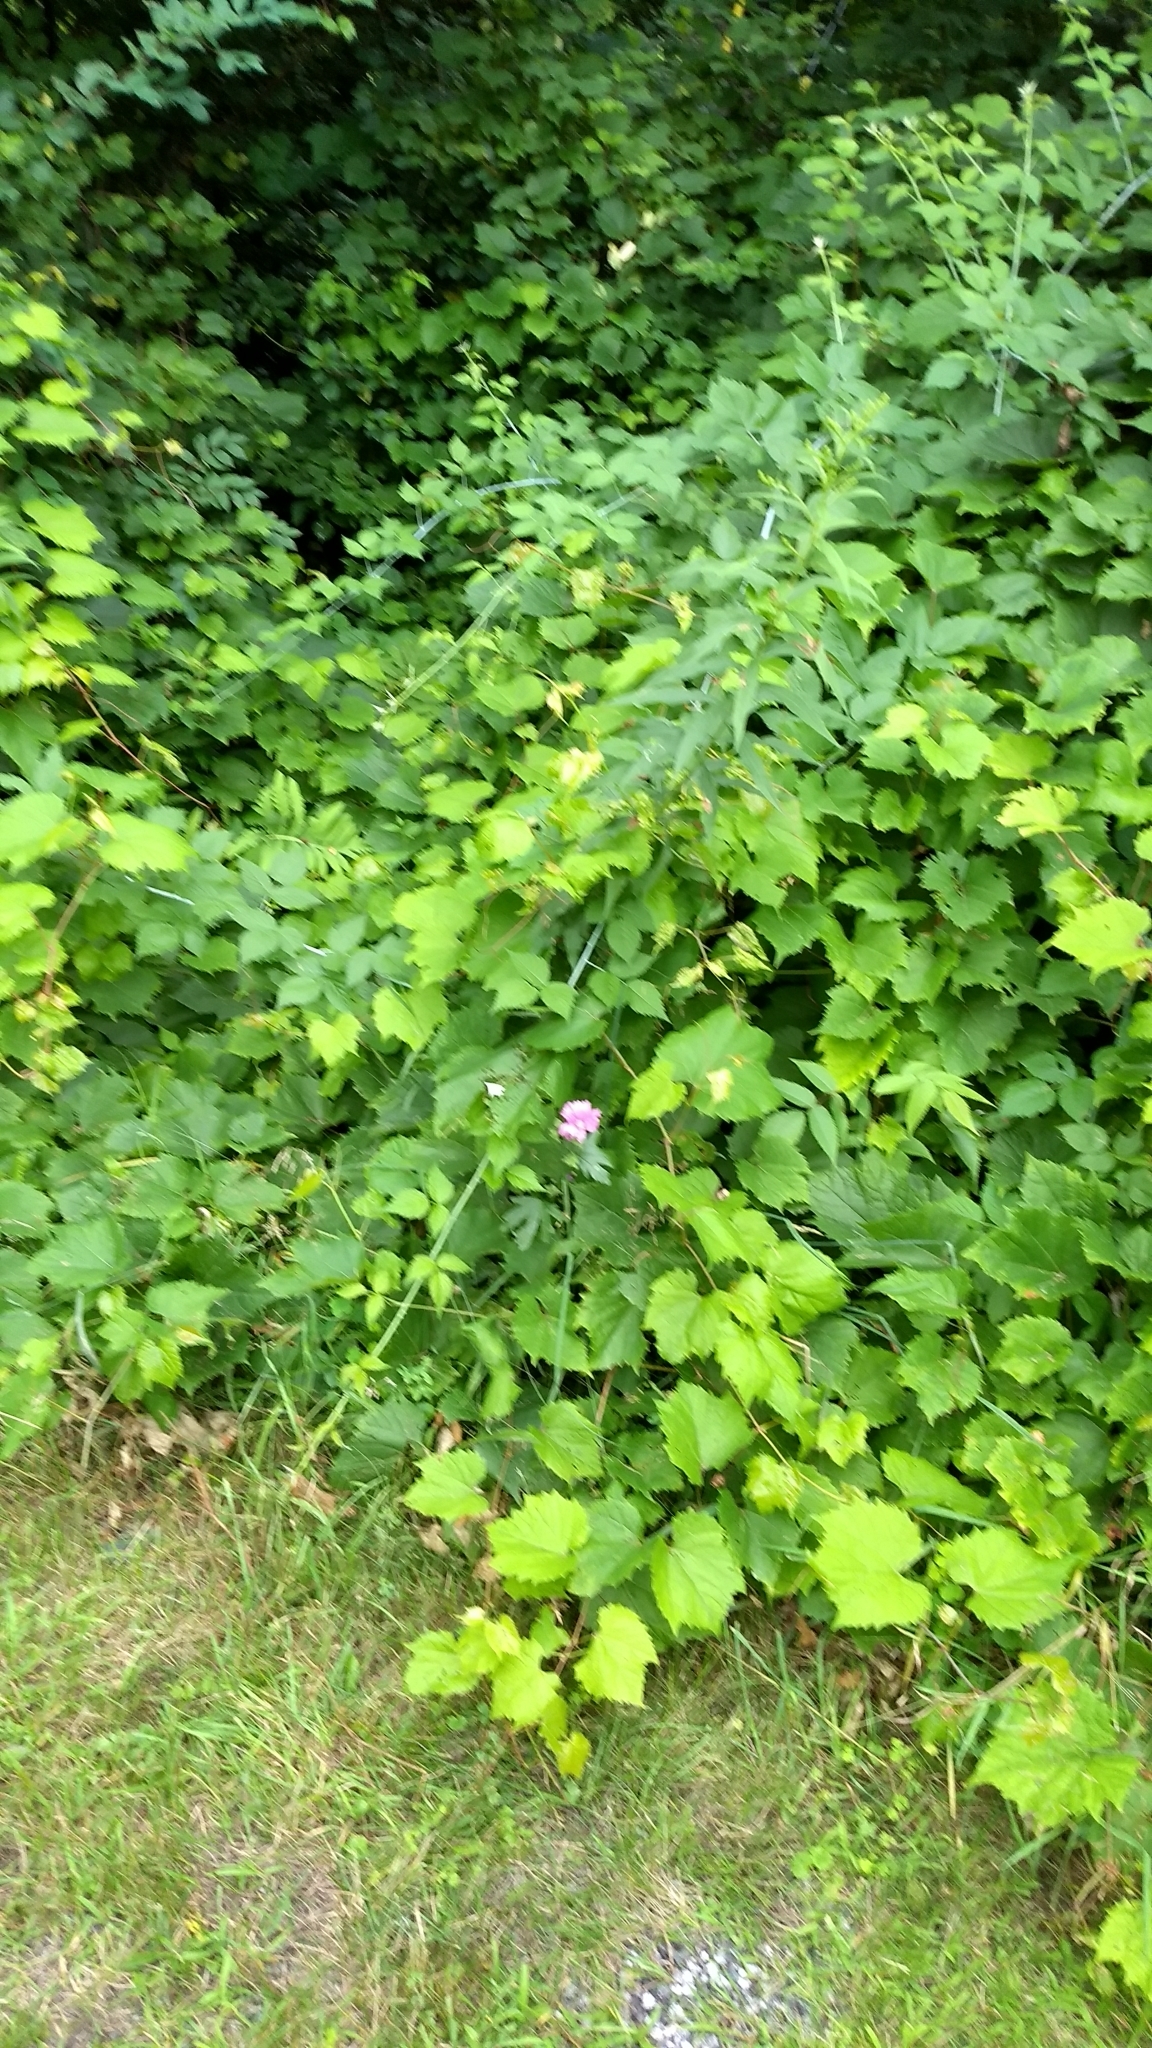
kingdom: Plantae
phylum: Tracheophyta
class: Magnoliopsida
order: Malvales
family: Malvaceae
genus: Malva
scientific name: Malva moschata
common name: Musk mallow
